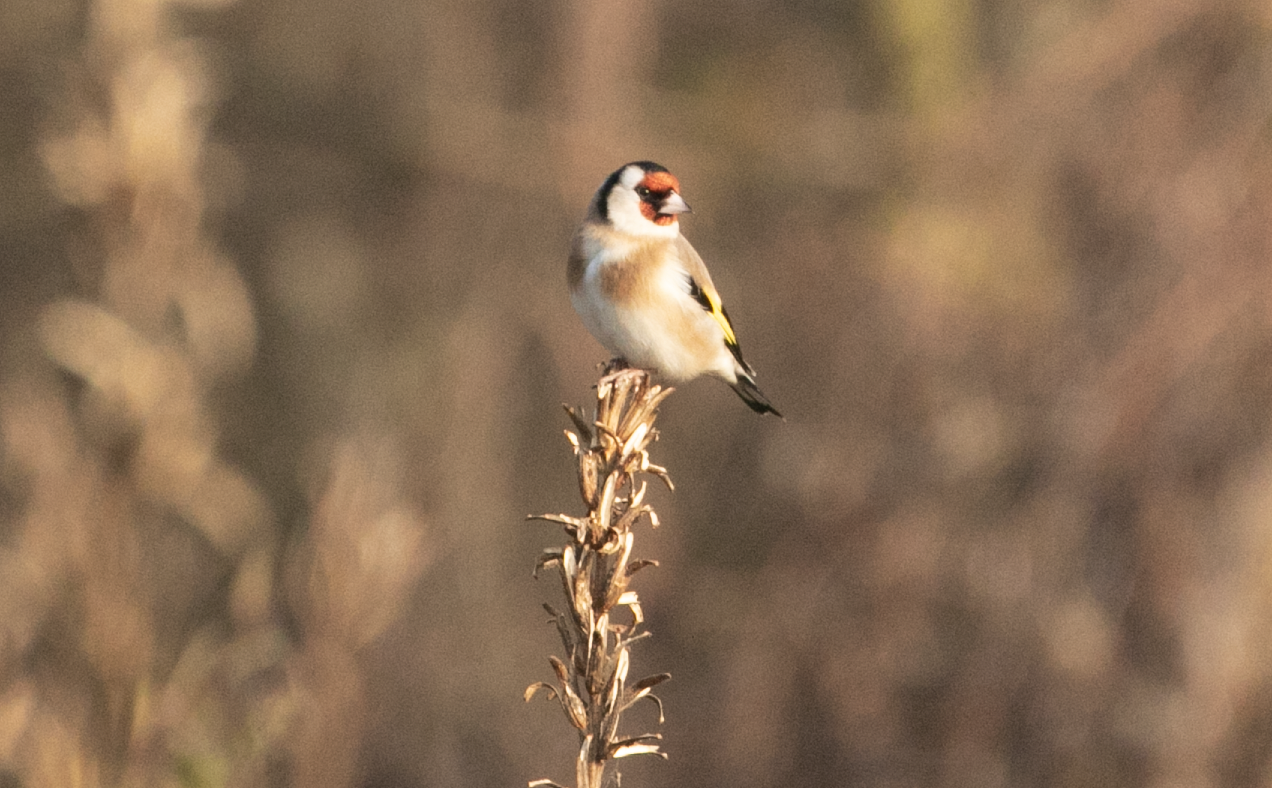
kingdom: Animalia
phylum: Chordata
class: Aves
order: Passeriformes
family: Fringillidae
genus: Carduelis
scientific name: Carduelis carduelis
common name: European goldfinch
